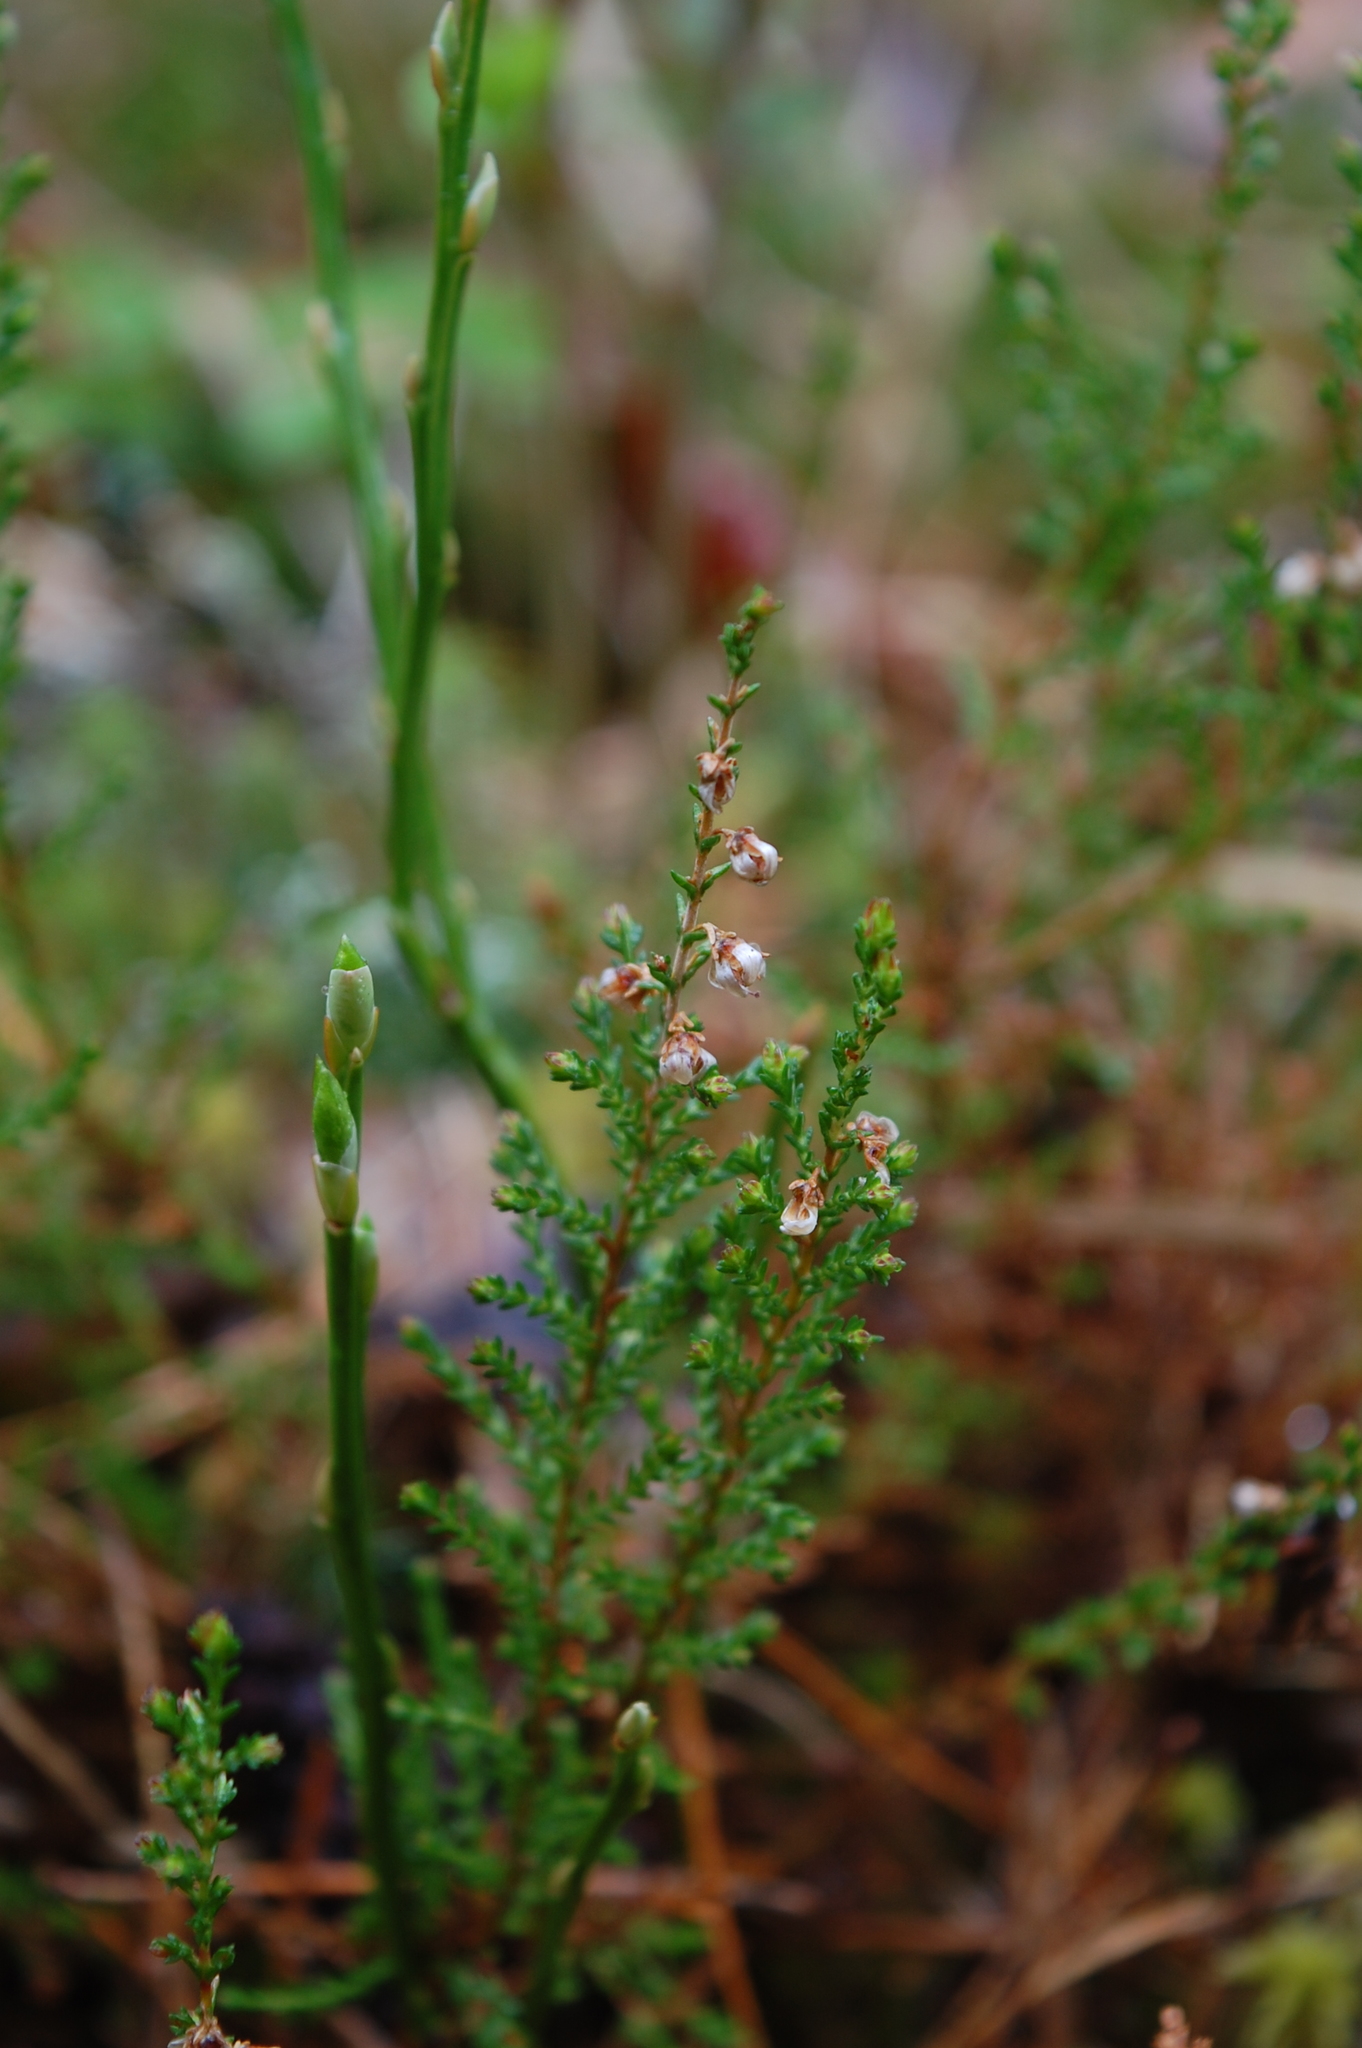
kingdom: Plantae
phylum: Tracheophyta
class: Magnoliopsida
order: Ericales
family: Ericaceae
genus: Calluna
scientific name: Calluna vulgaris
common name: Heather
